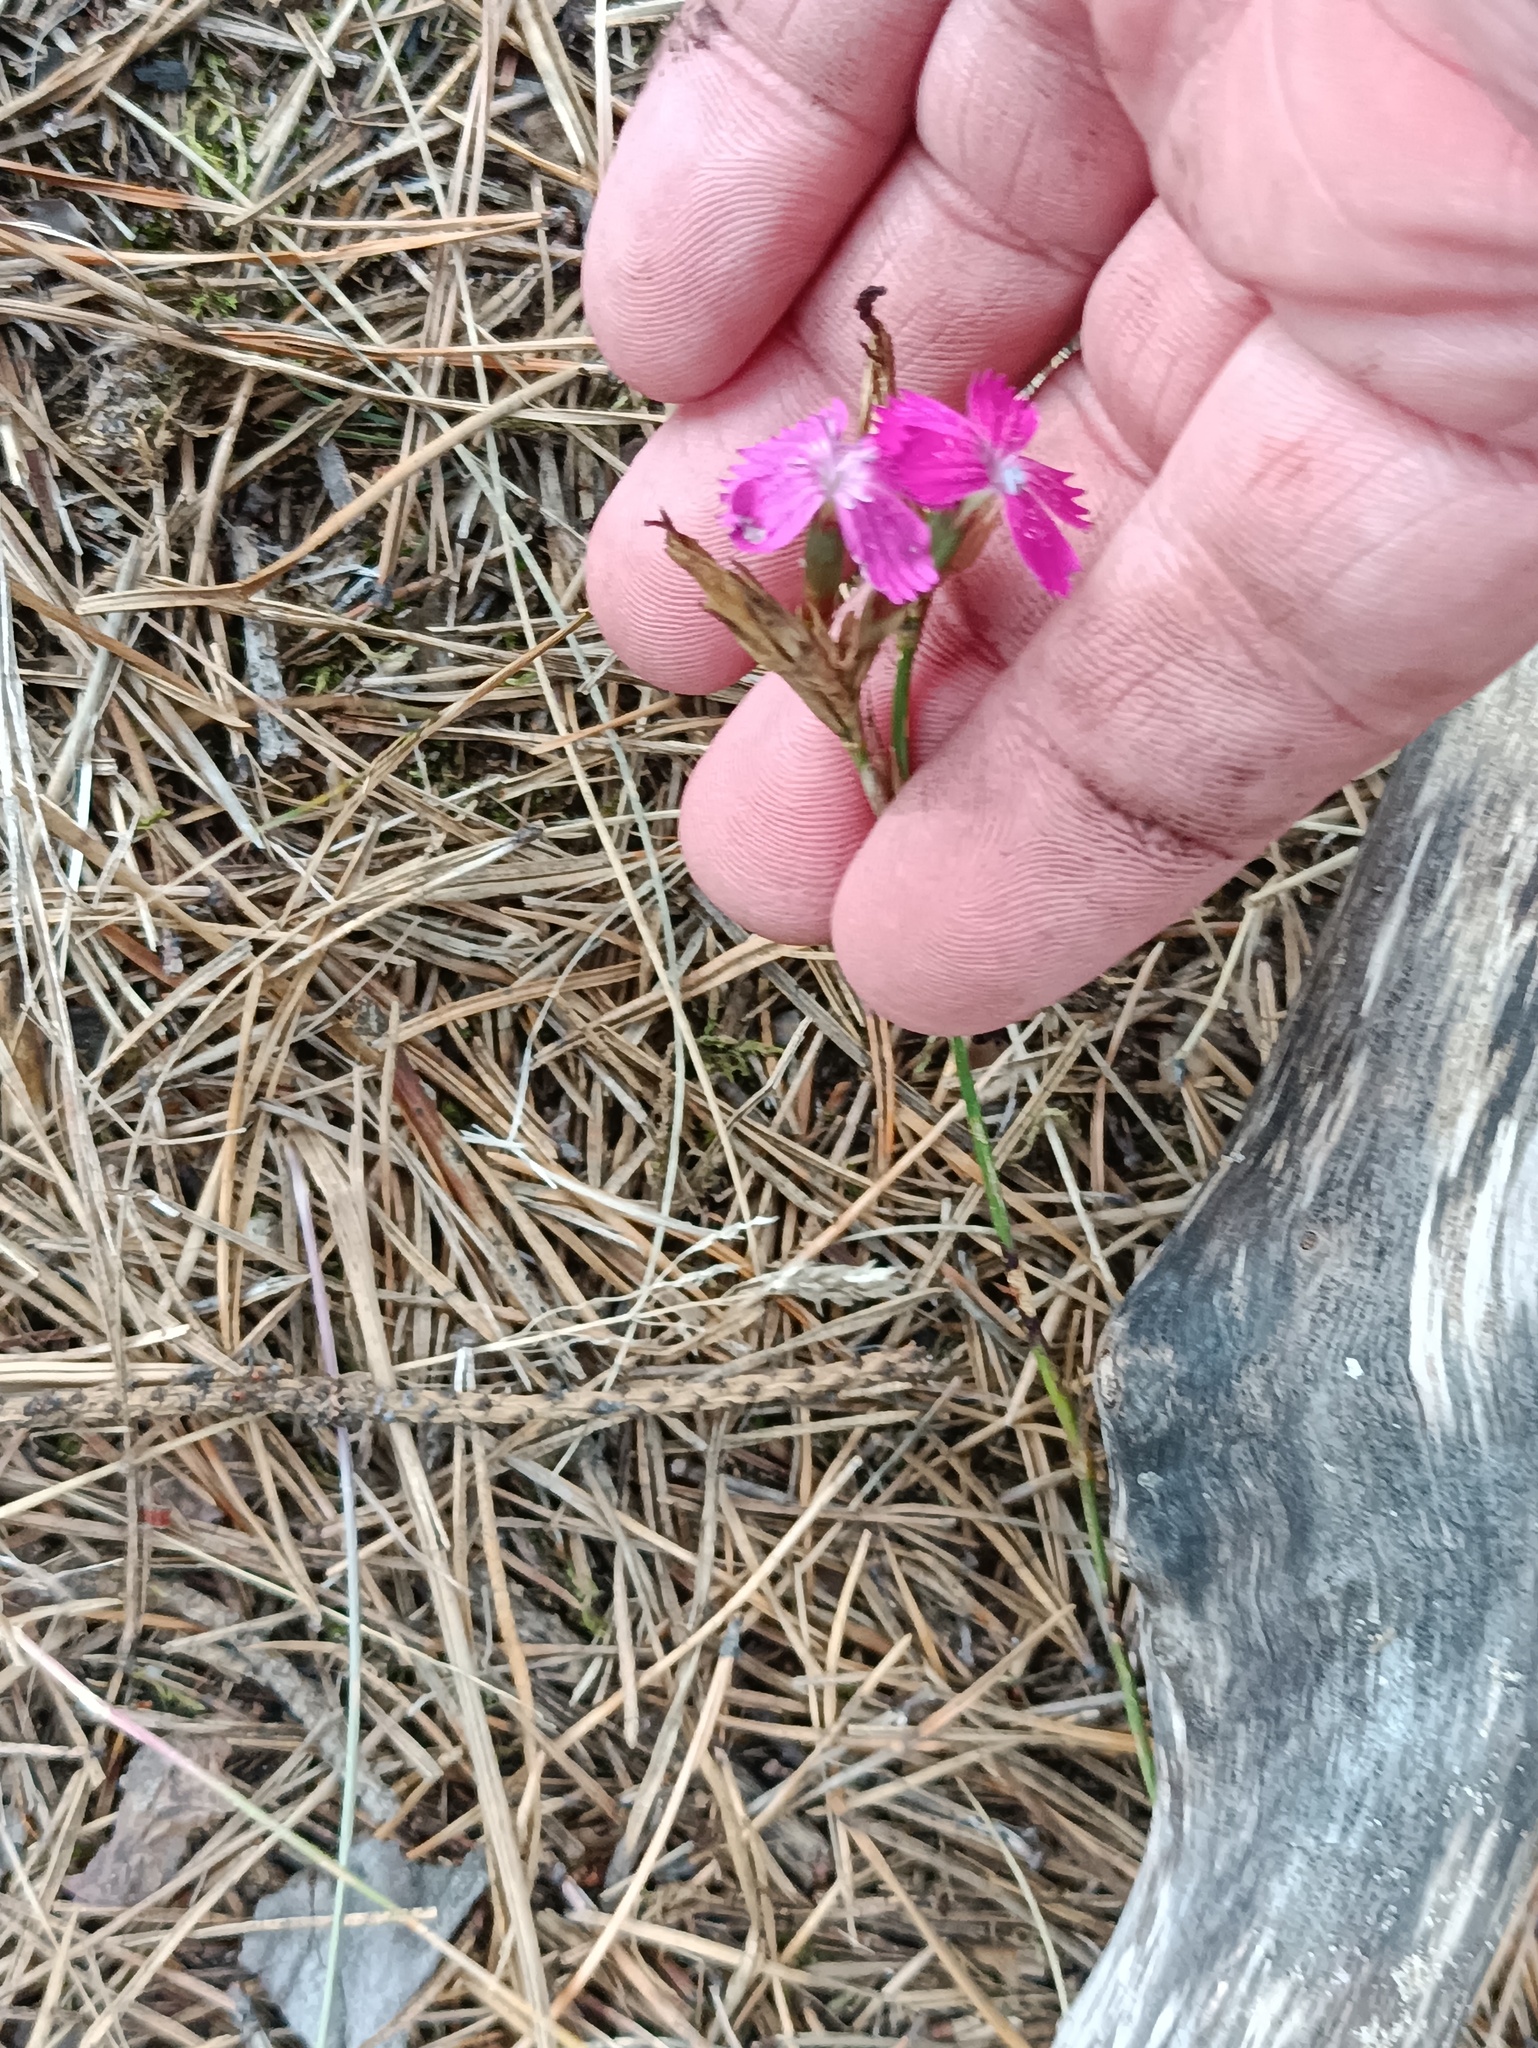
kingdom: Plantae
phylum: Tracheophyta
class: Magnoliopsida
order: Caryophyllales
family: Caryophyllaceae
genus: Dianthus
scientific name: Dianthus borbasii
